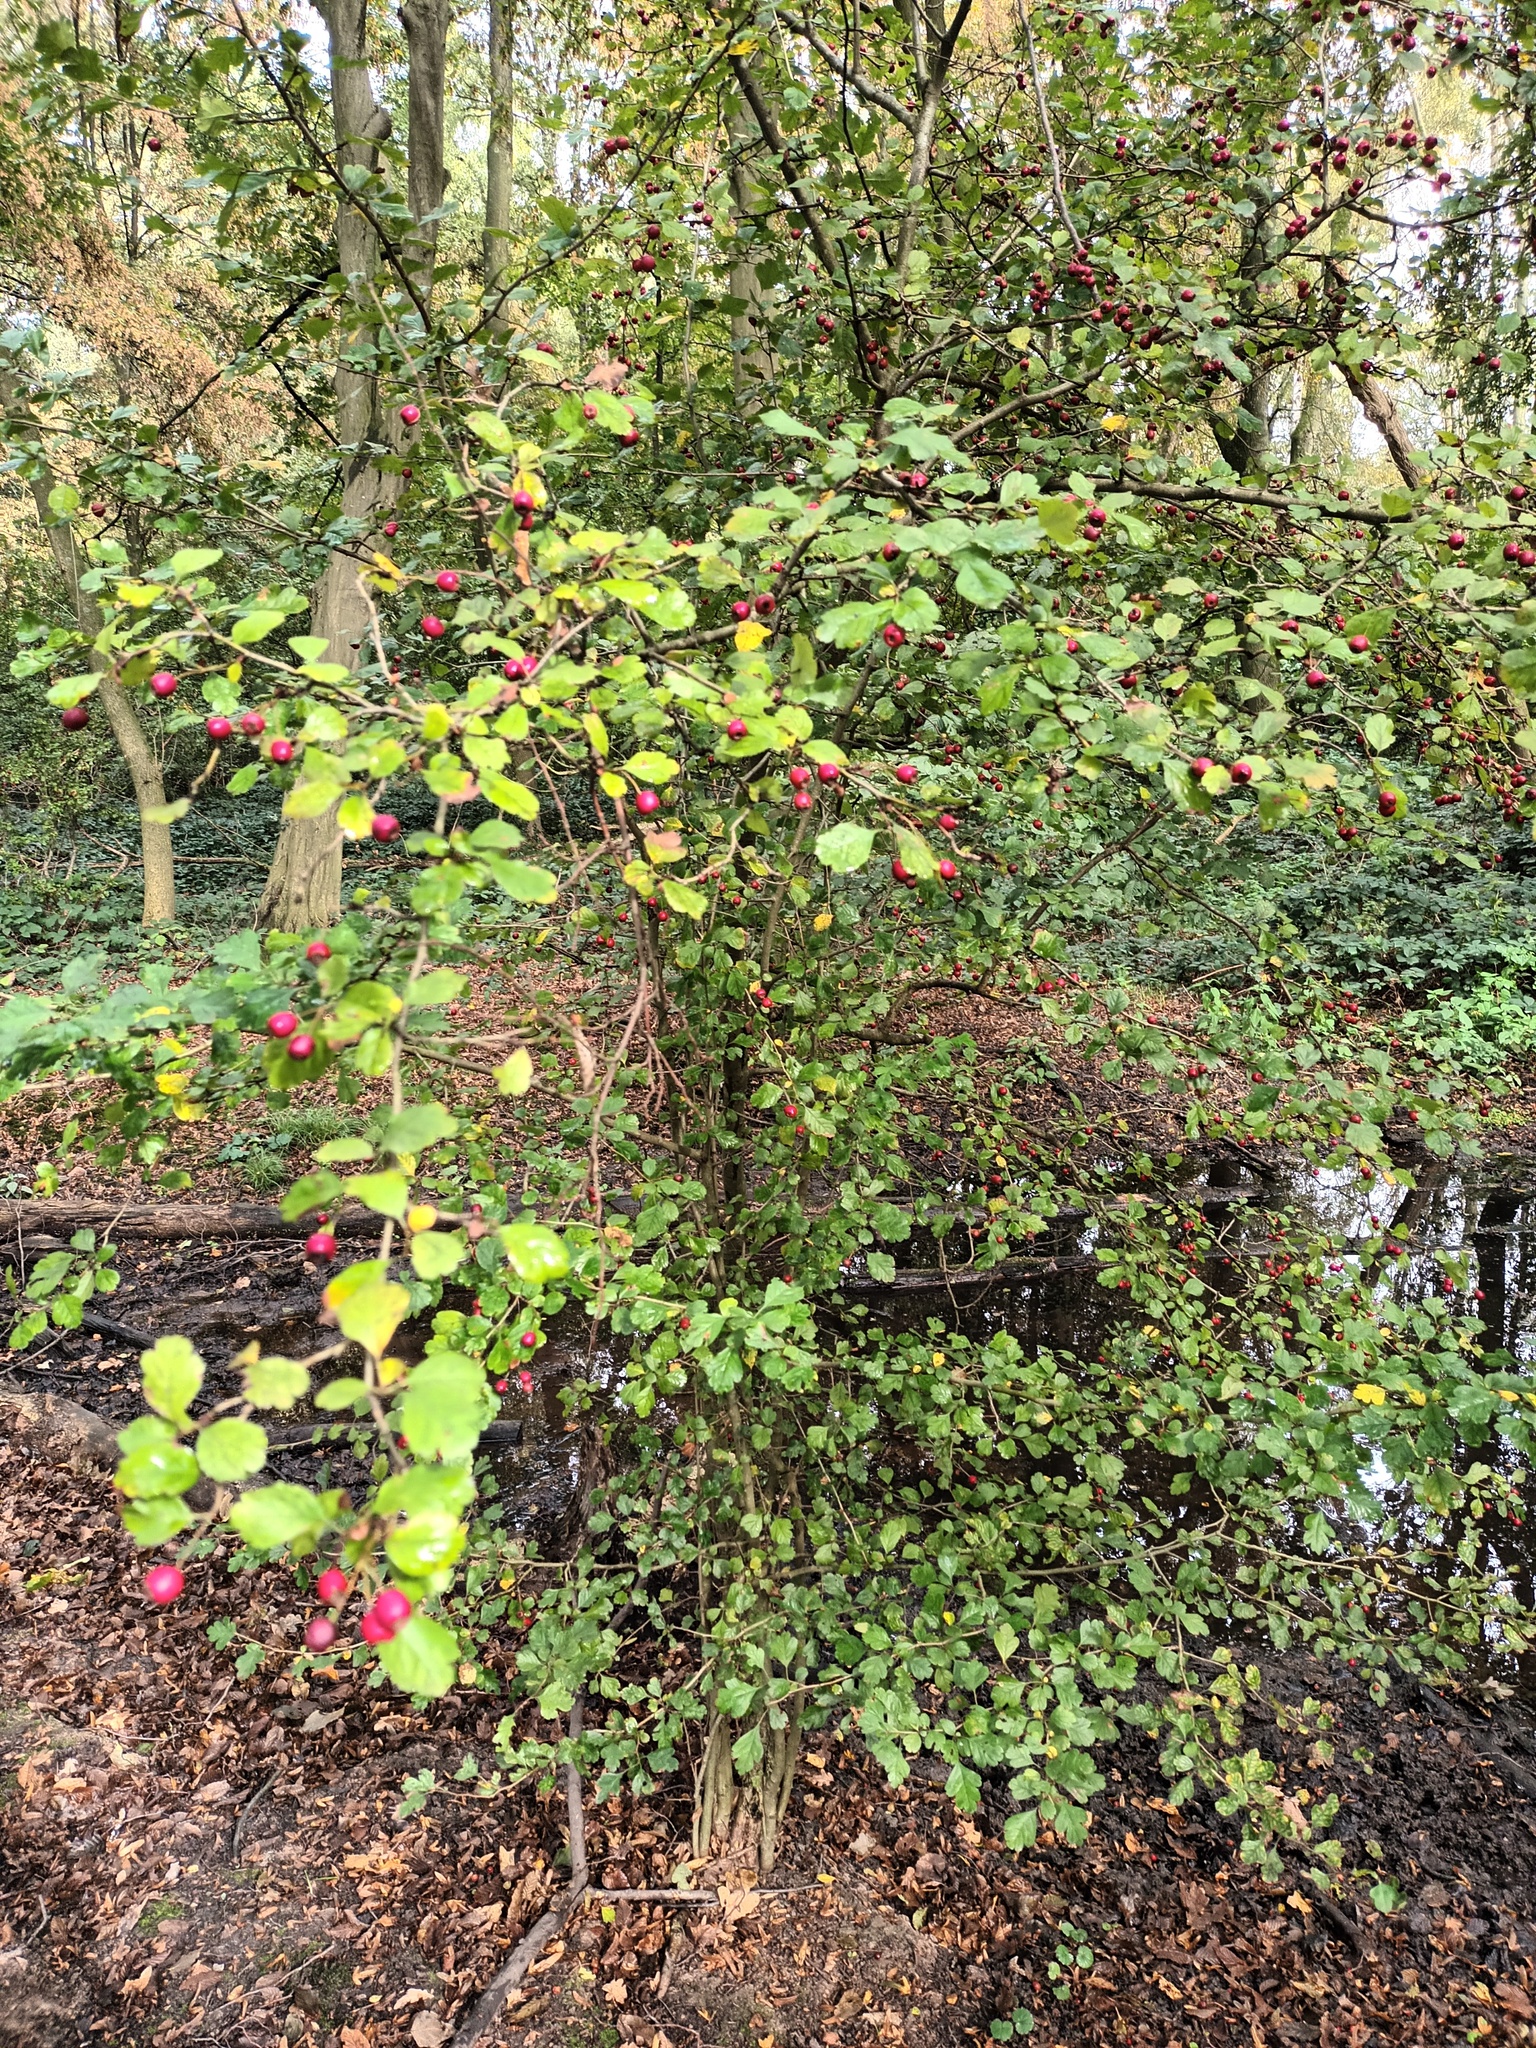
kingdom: Plantae
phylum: Tracheophyta
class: Magnoliopsida
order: Rosales
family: Rosaceae
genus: Crataegus
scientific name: Crataegus laevigata
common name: Midland hawthorn
